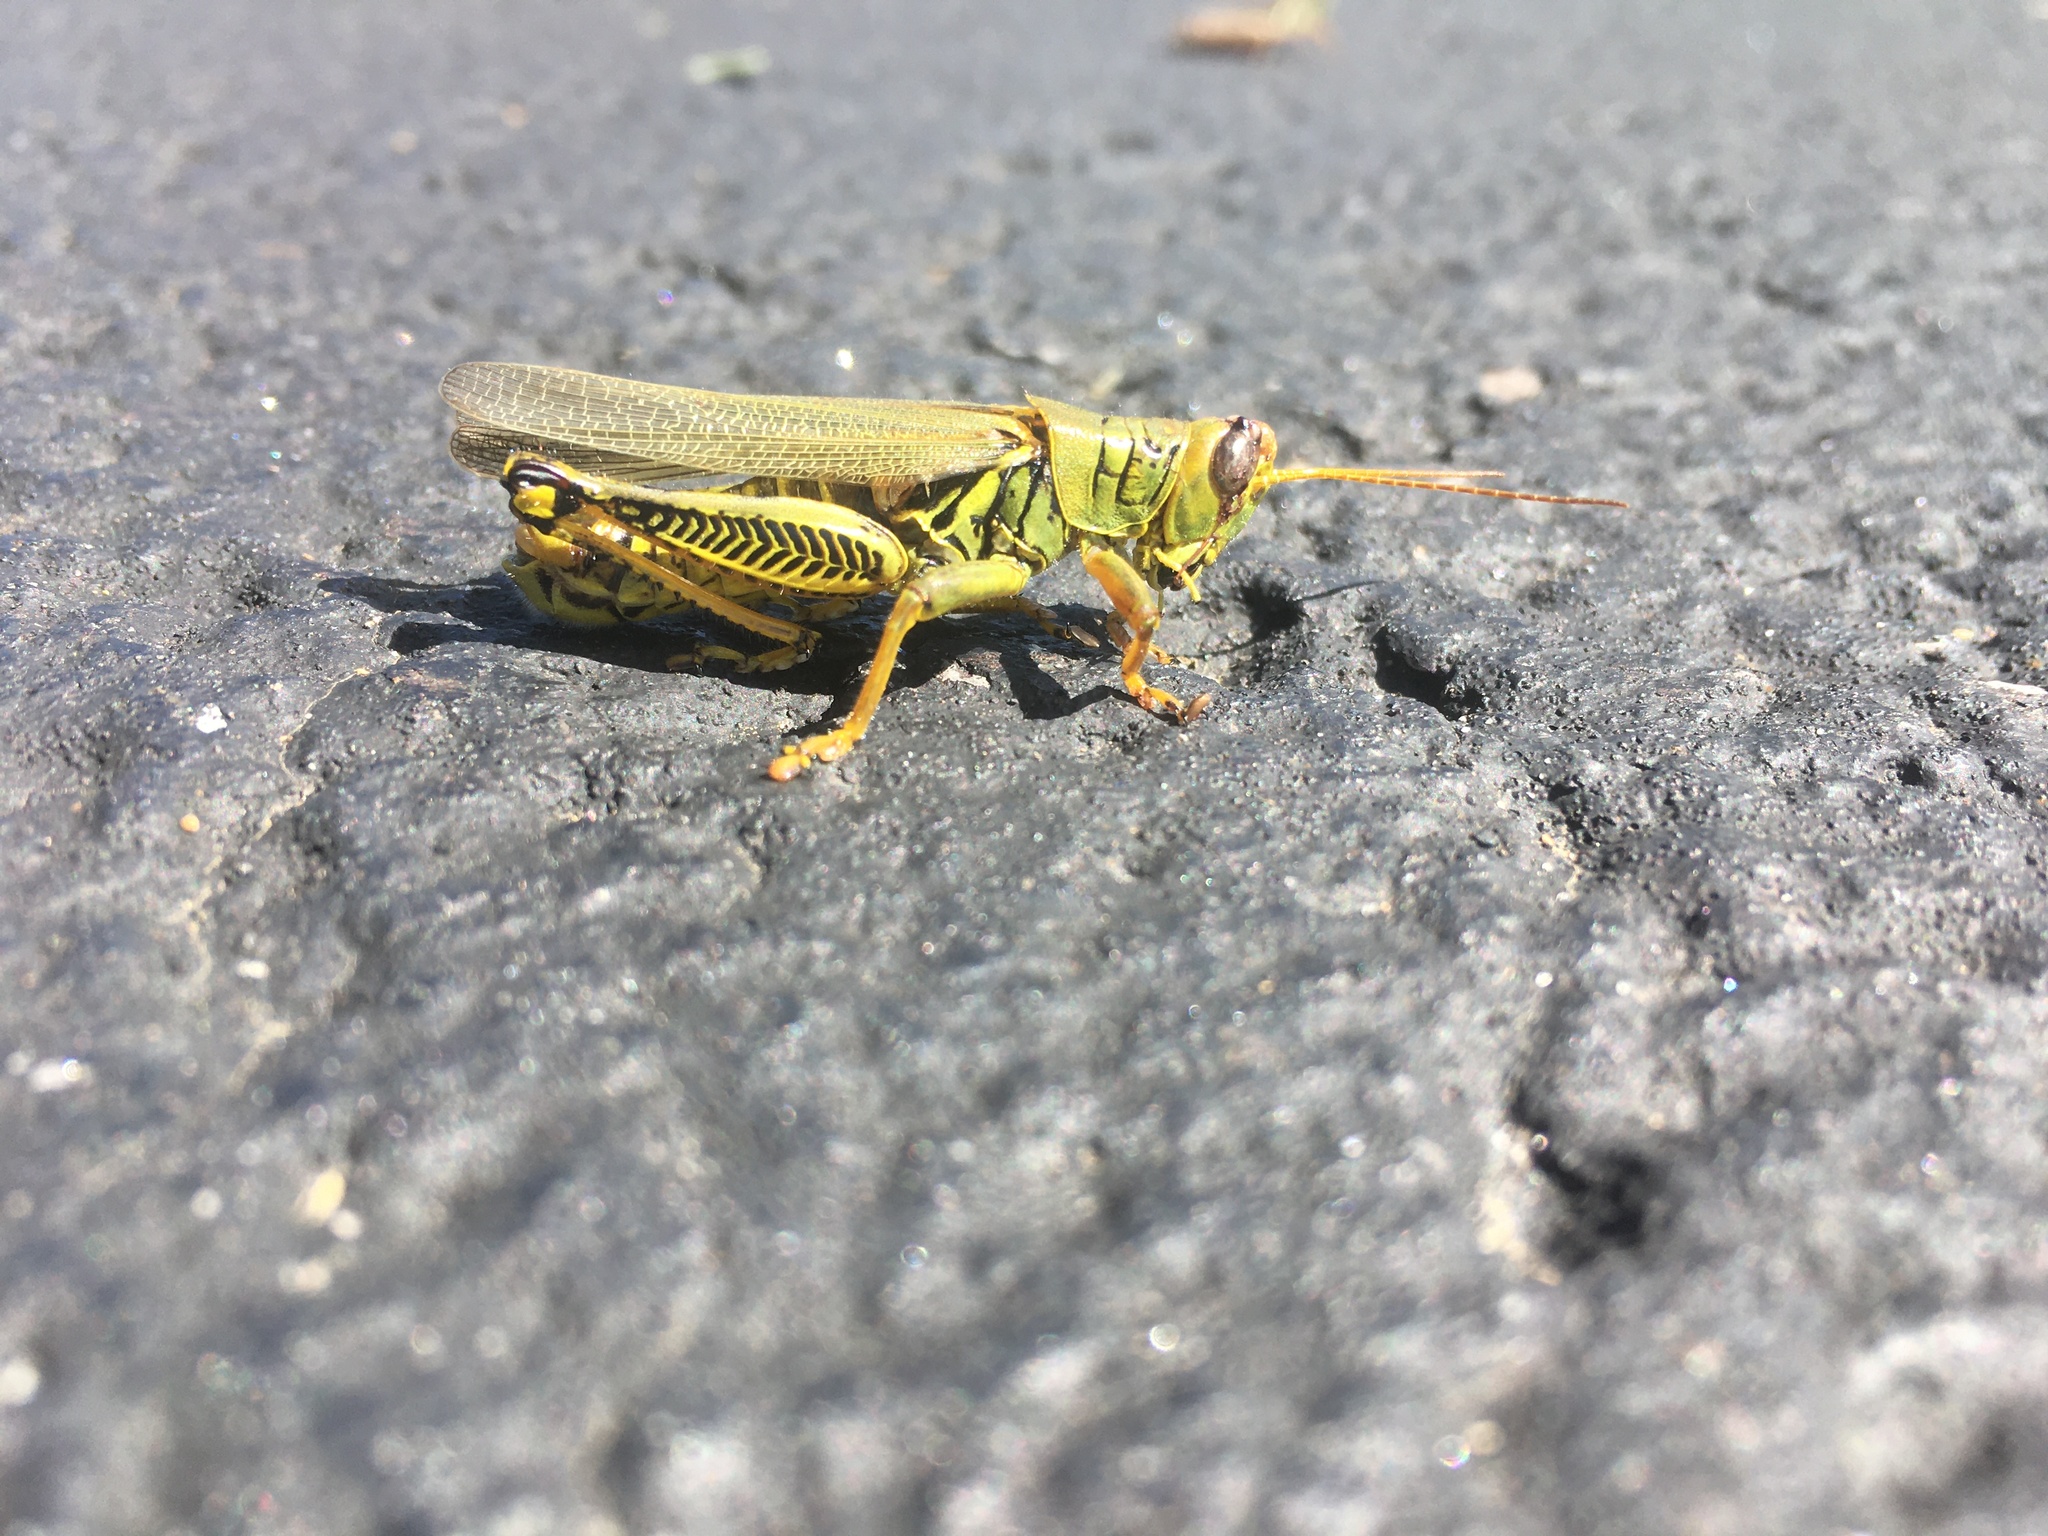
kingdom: Animalia
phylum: Arthropoda
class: Insecta
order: Orthoptera
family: Acrididae
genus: Melanoplus
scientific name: Melanoplus differentialis
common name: Differential grasshopper
